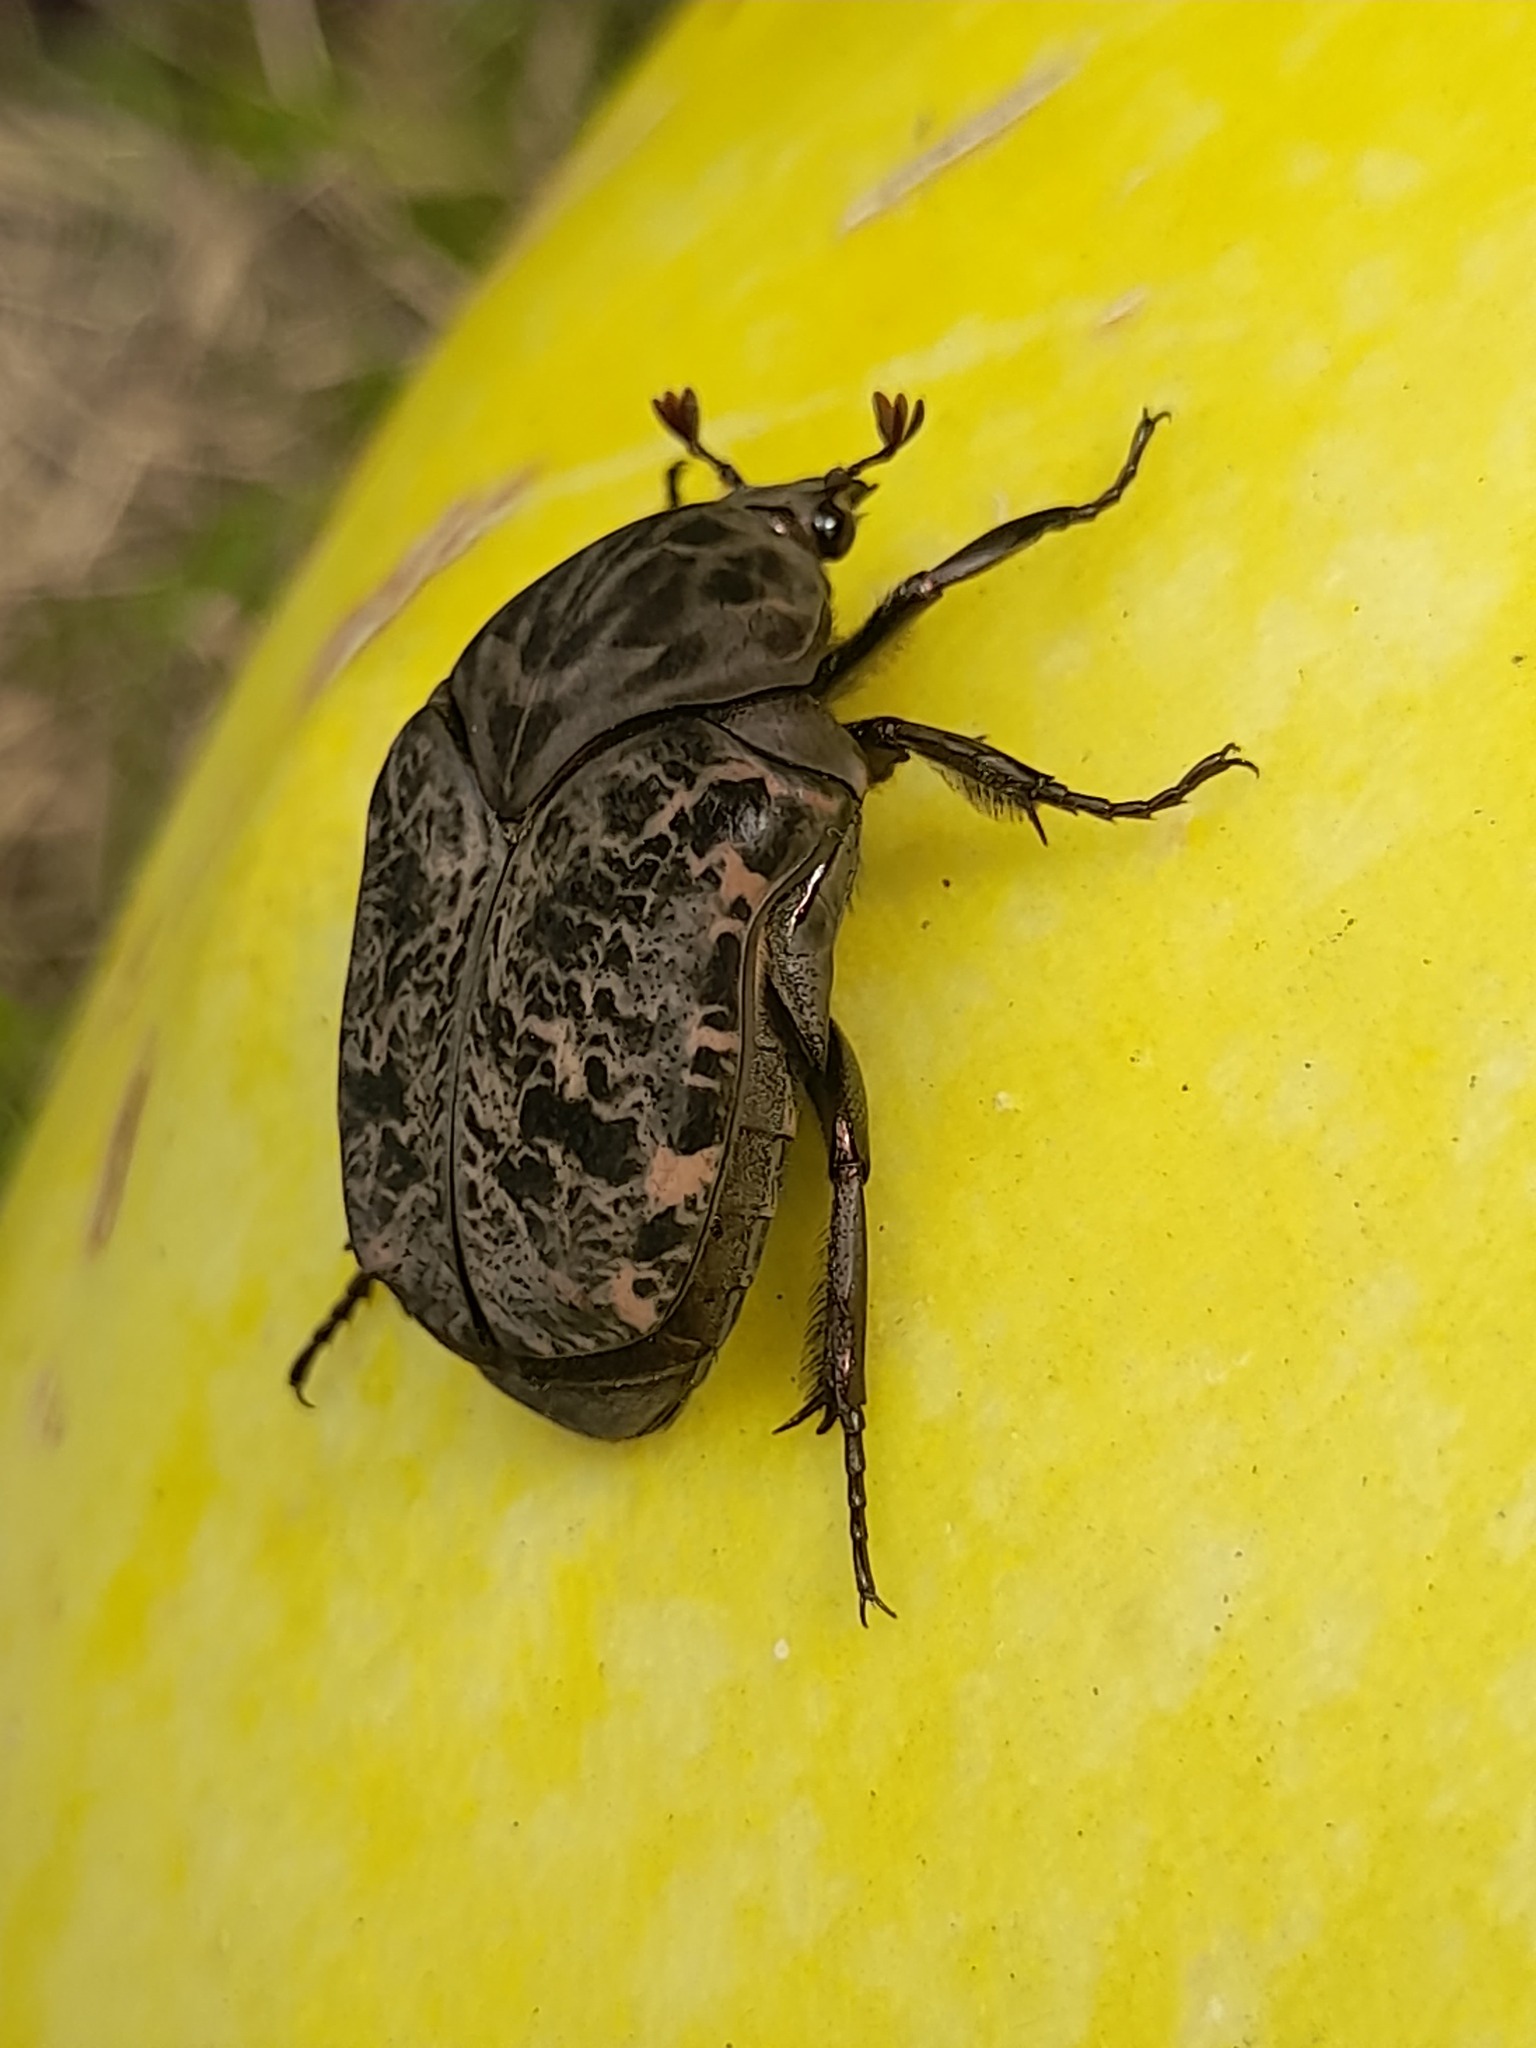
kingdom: Animalia
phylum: Arthropoda
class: Insecta
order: Coleoptera
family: Scarabaeidae
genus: Gymnetis
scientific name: Gymnetis chalcipes
